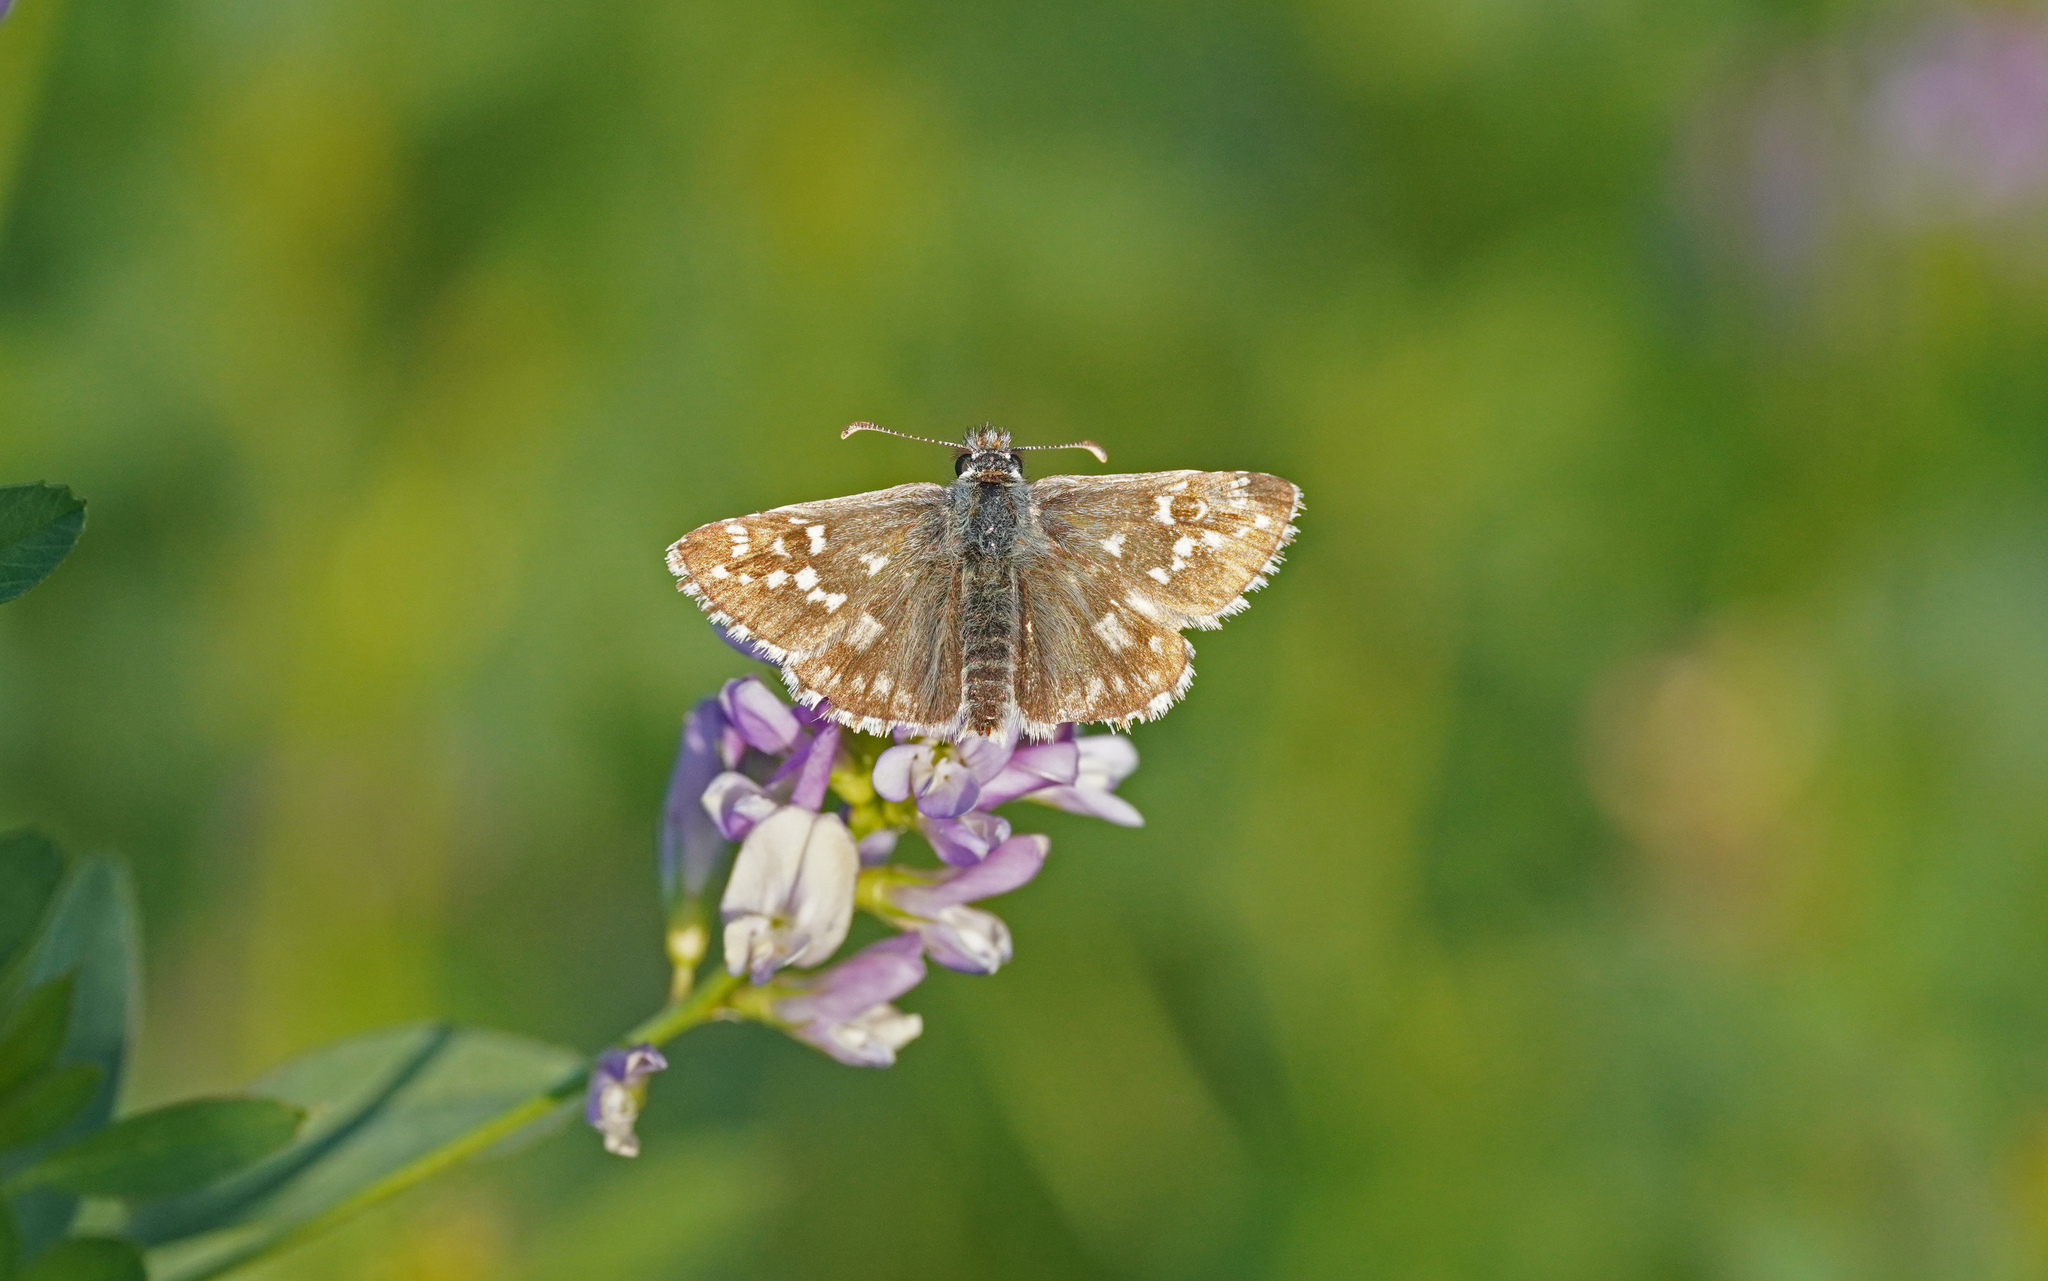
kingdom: Animalia
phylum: Arthropoda
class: Insecta
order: Lepidoptera
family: Hesperiidae
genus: Pyrgus
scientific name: Pyrgus armoricanus
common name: Oberthür's grizzled skipper
